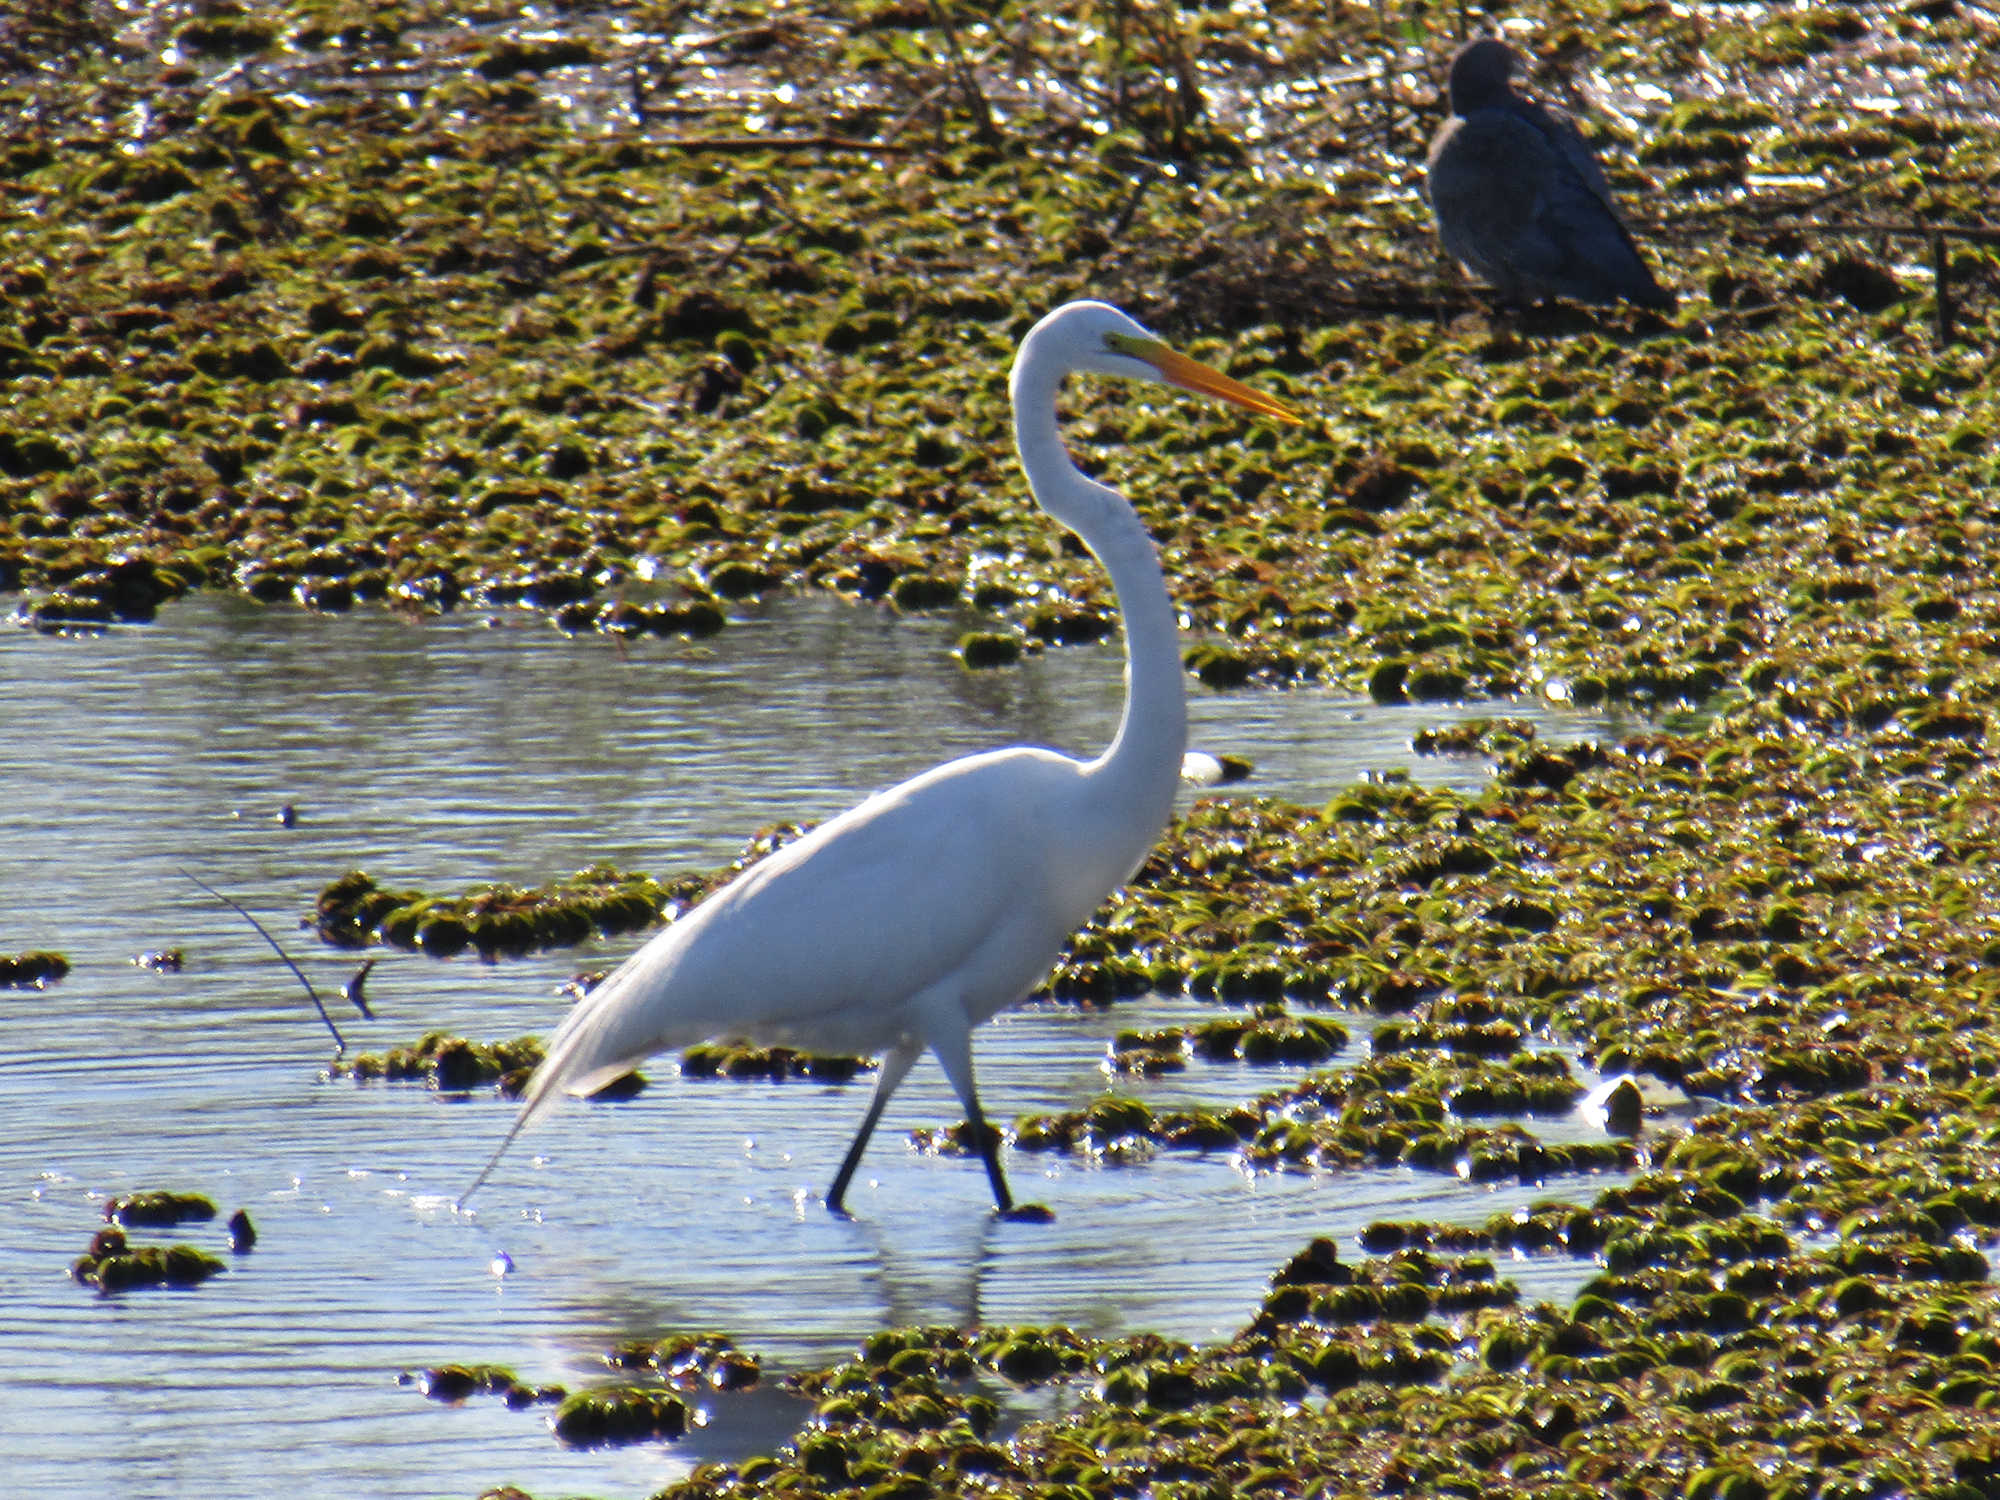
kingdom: Animalia
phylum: Chordata
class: Aves
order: Pelecaniformes
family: Ardeidae
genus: Ardea
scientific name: Ardea alba
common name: Great egret
